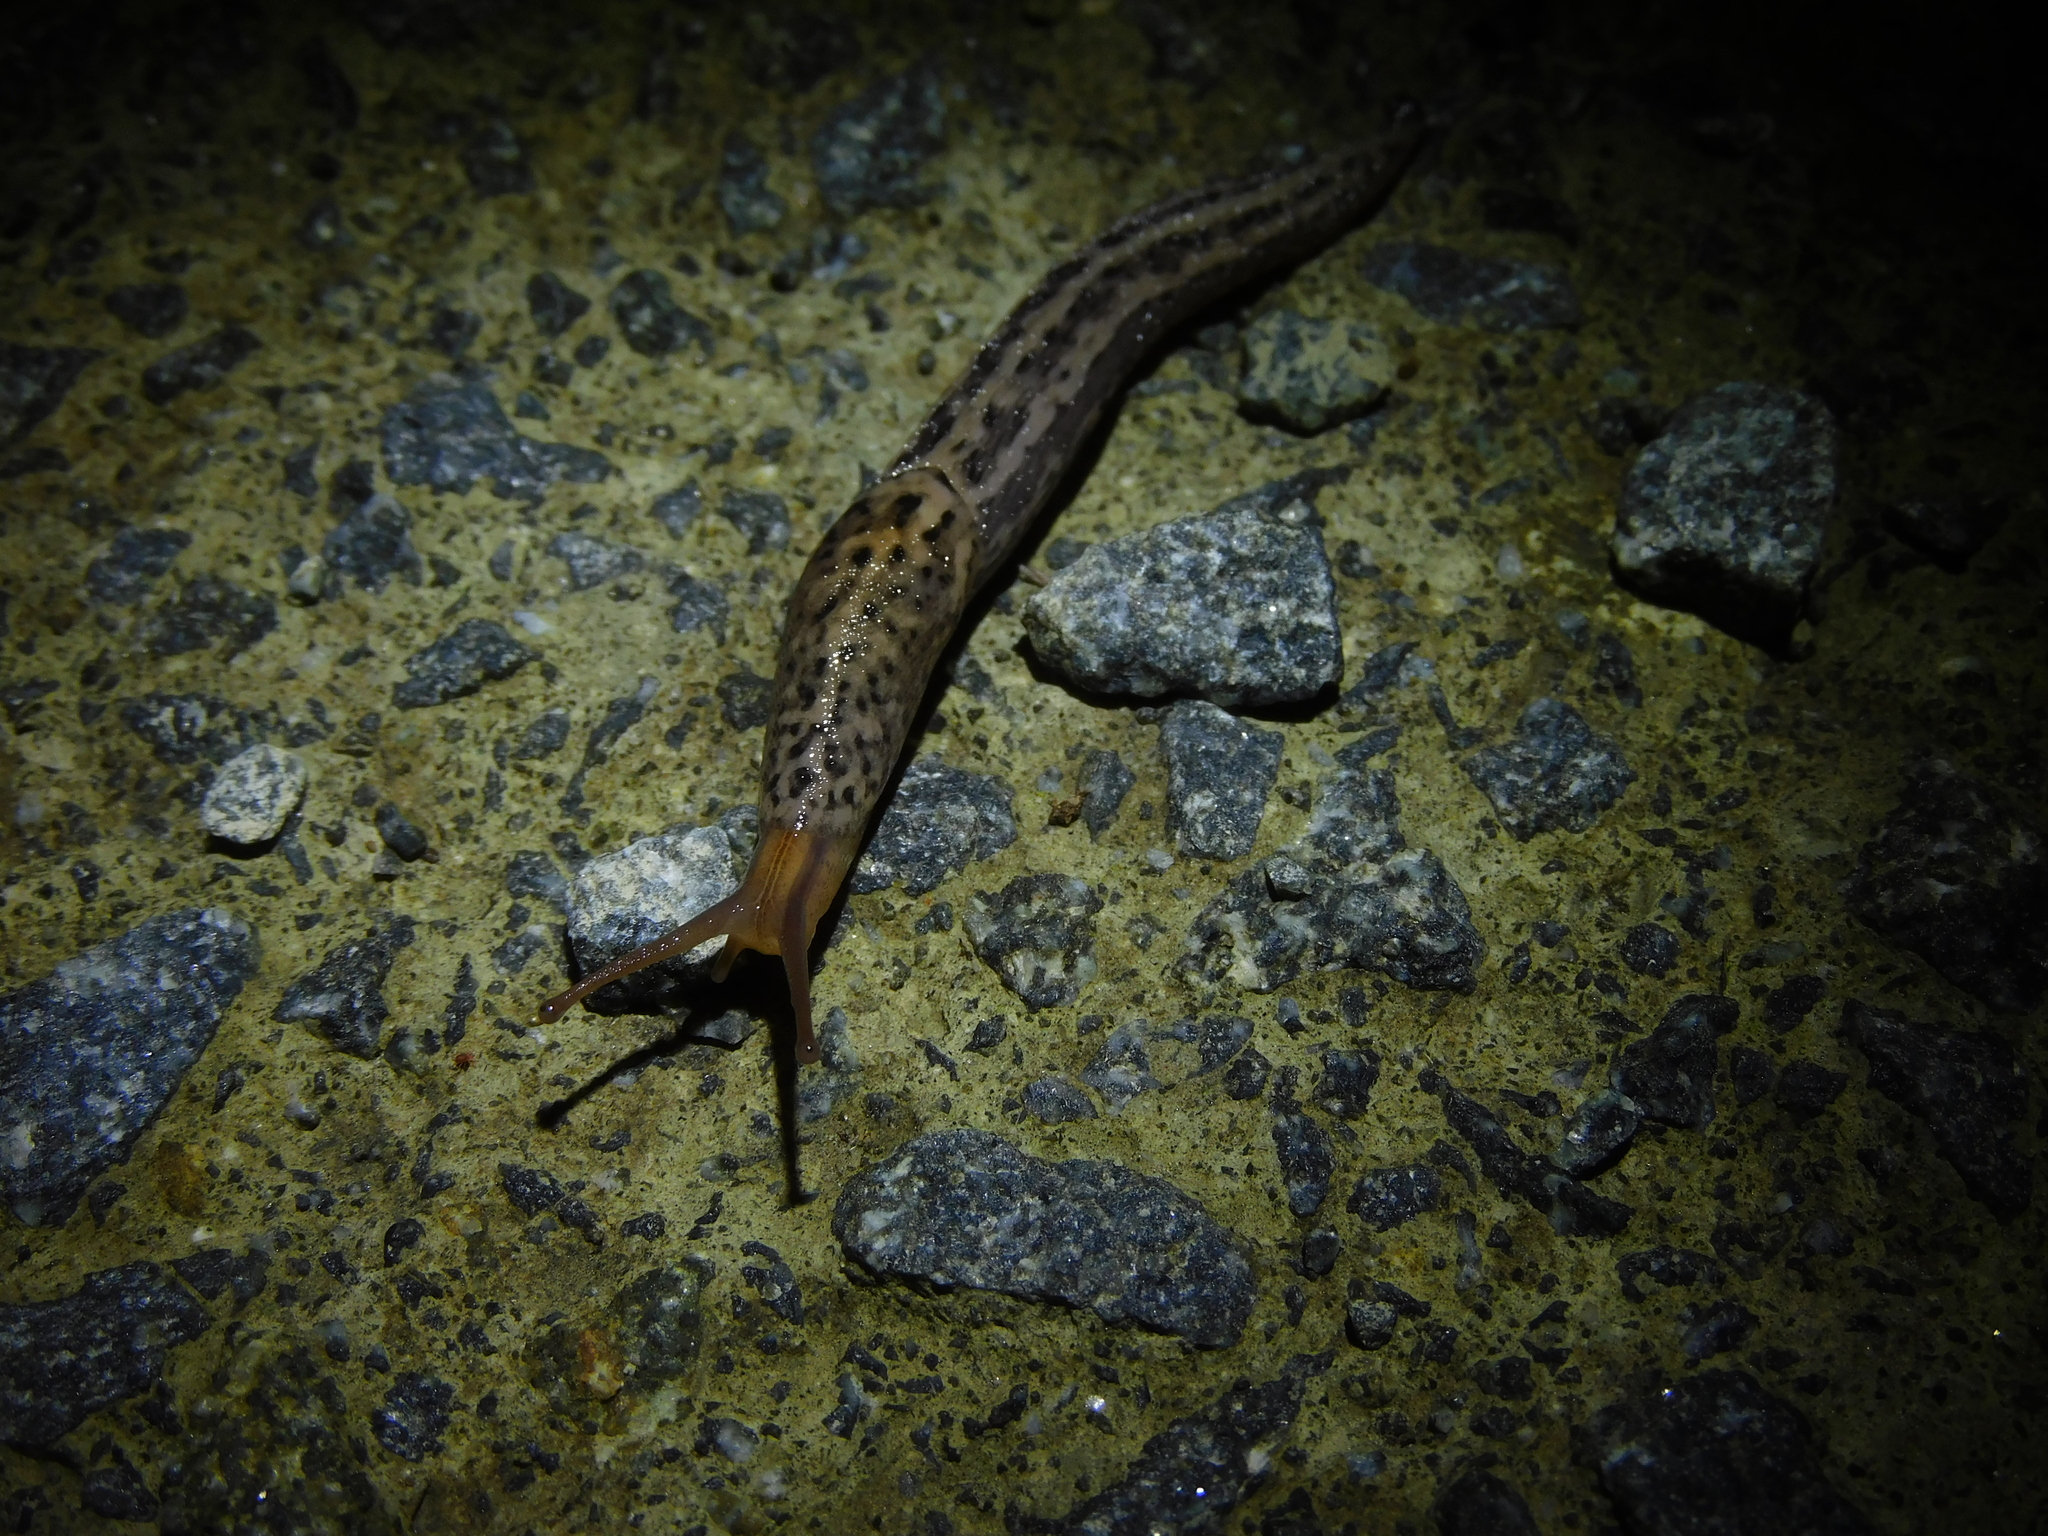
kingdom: Animalia
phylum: Mollusca
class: Gastropoda
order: Stylommatophora
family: Limacidae
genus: Limax
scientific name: Limax maximus
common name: Great grey slug
